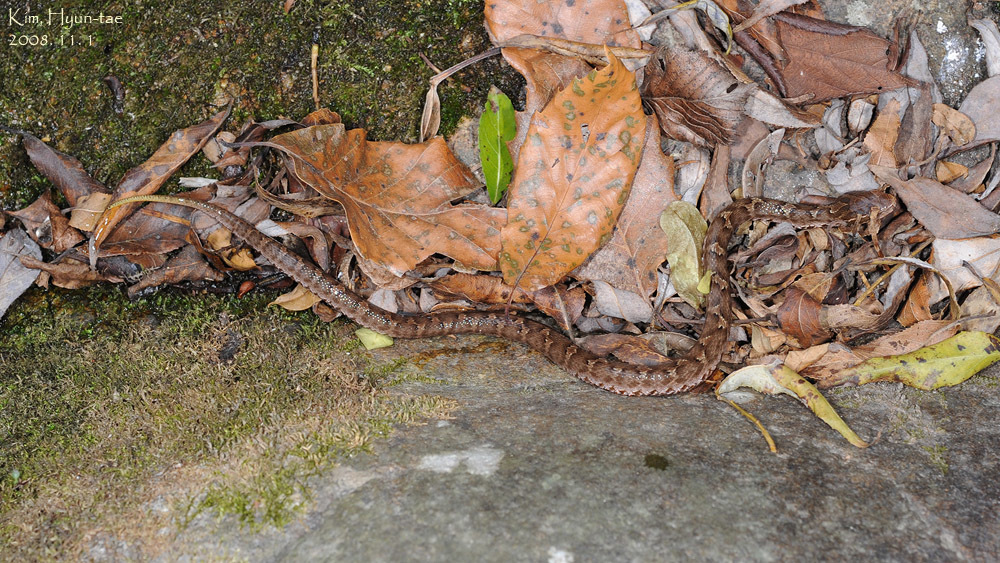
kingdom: Animalia
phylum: Chordata
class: Squamata
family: Viperidae
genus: Gloydius
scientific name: Gloydius ussuriensis
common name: Ussuri mamushi
